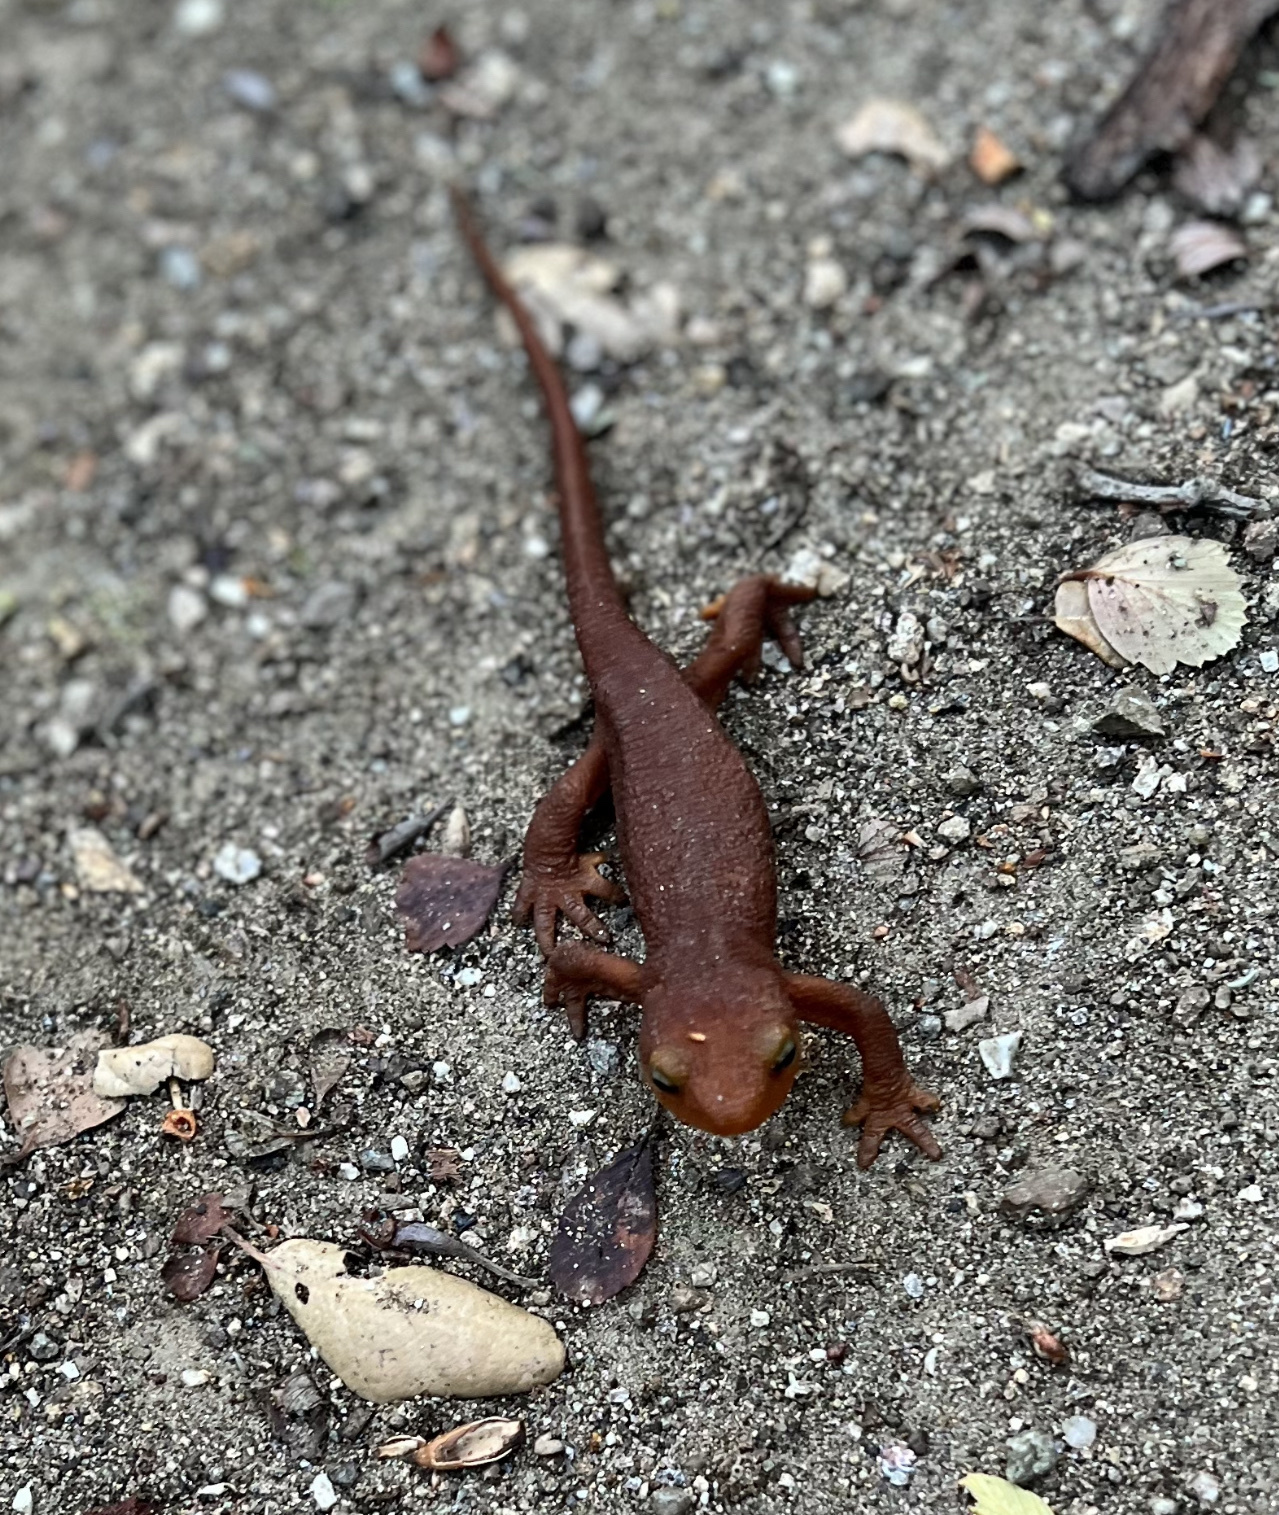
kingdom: Animalia
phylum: Chordata
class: Amphibia
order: Caudata
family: Salamandridae
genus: Taricha
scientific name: Taricha torosa
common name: California newt
